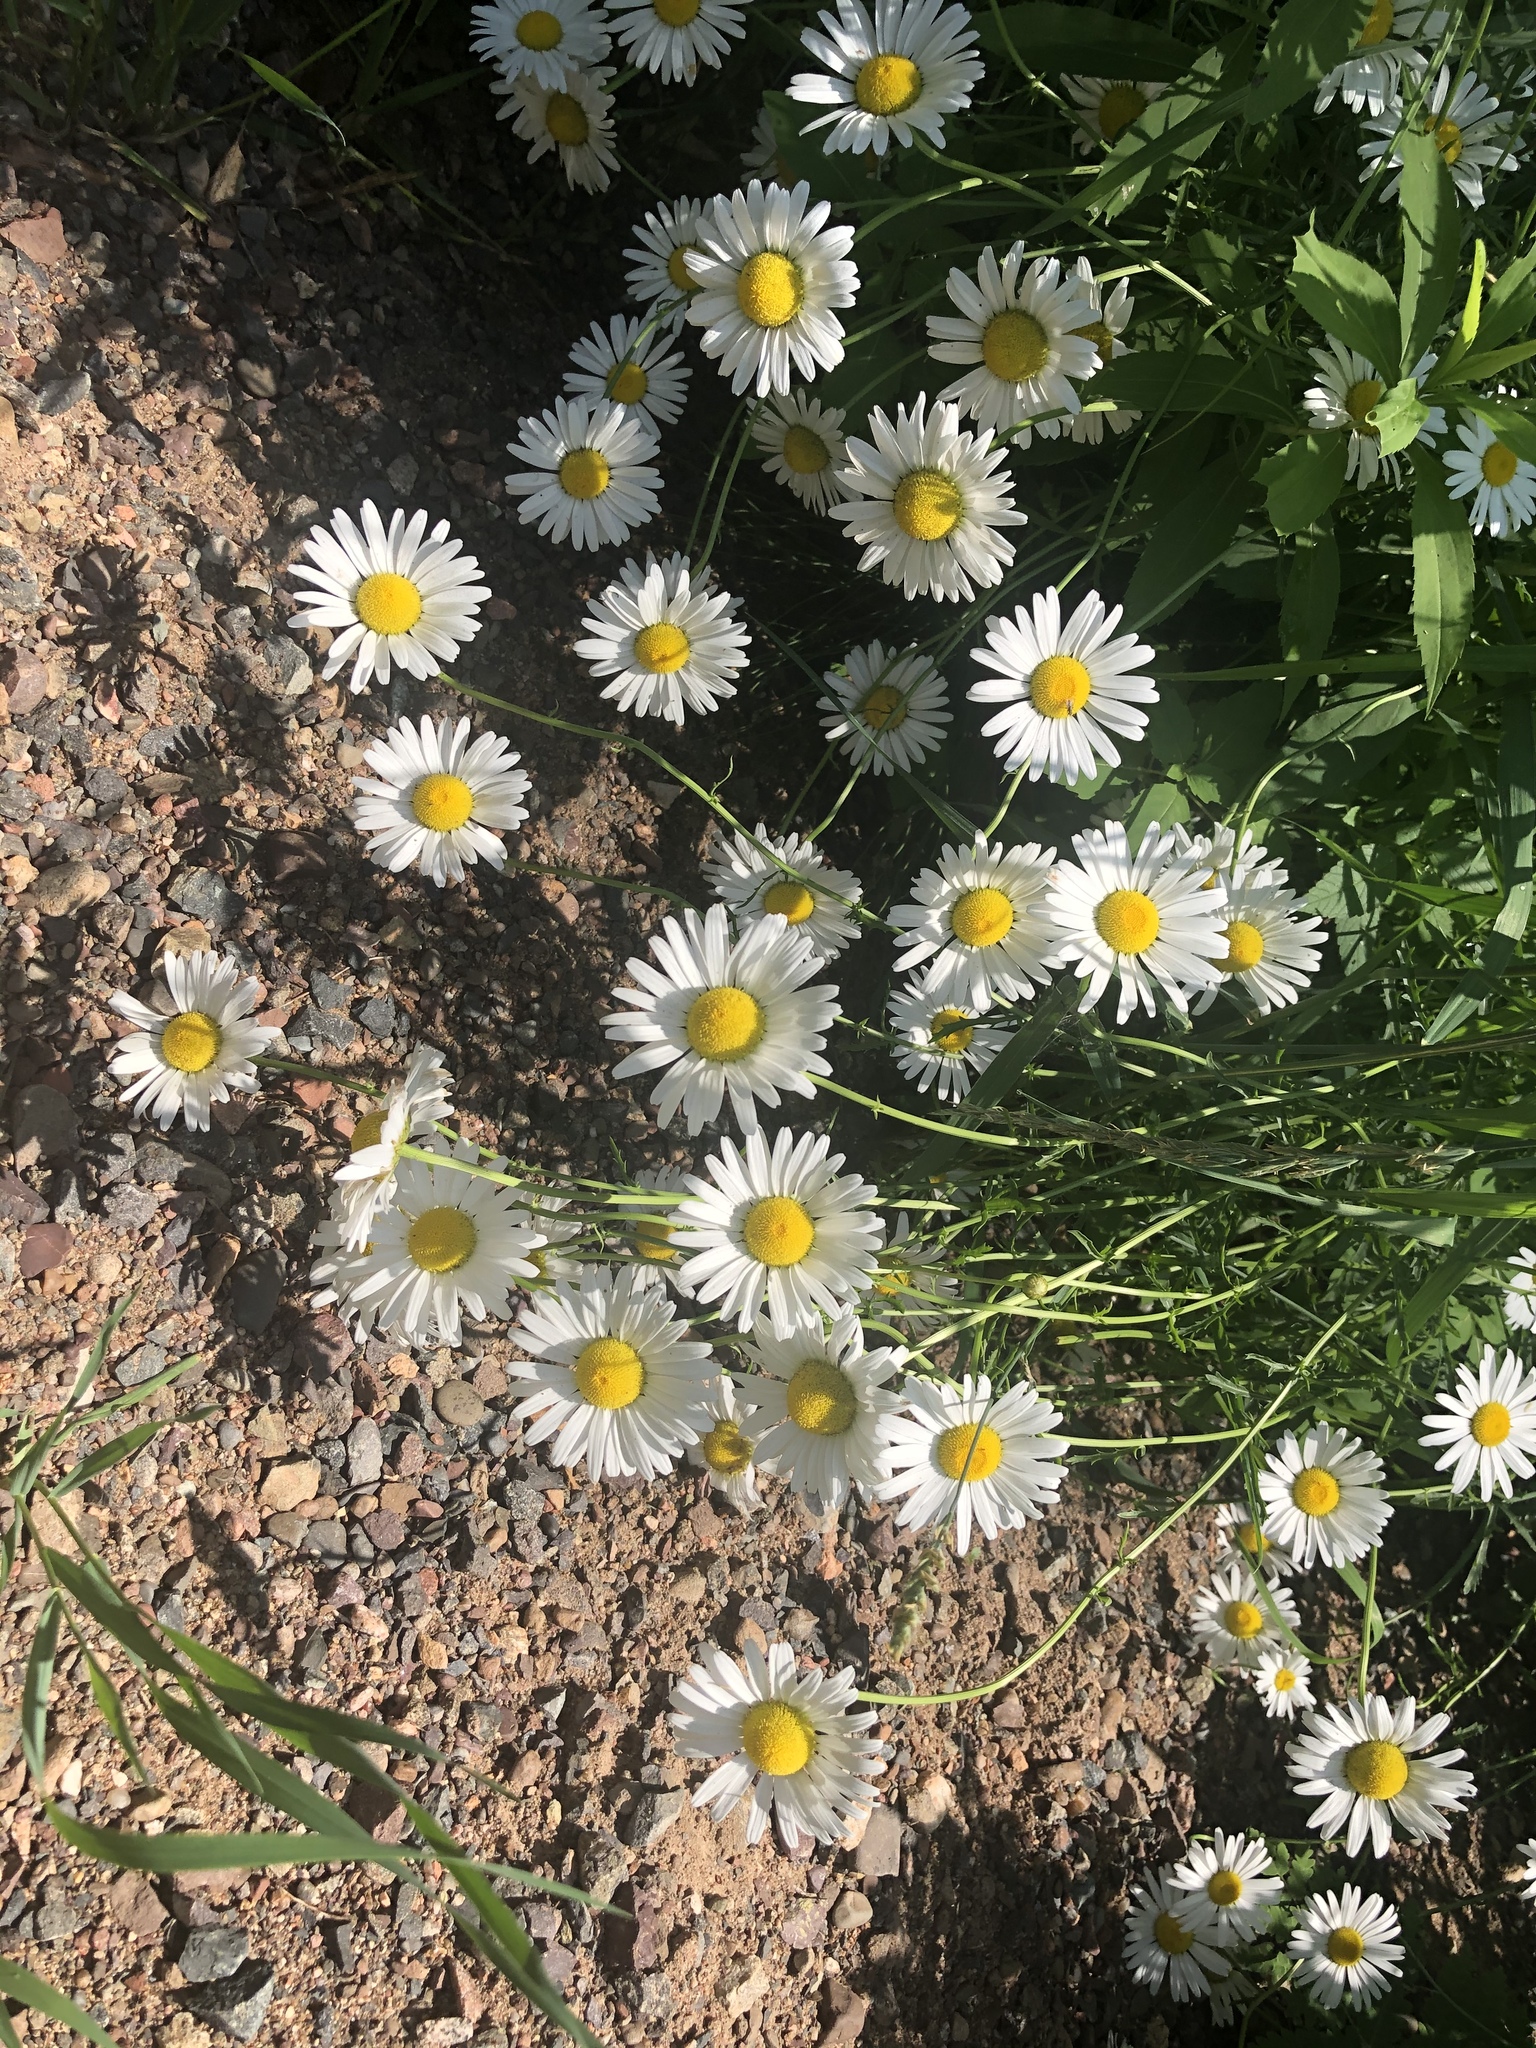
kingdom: Plantae
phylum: Tracheophyta
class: Magnoliopsida
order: Asterales
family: Asteraceae
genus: Leucanthemum
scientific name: Leucanthemum vulgare
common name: Oxeye daisy
